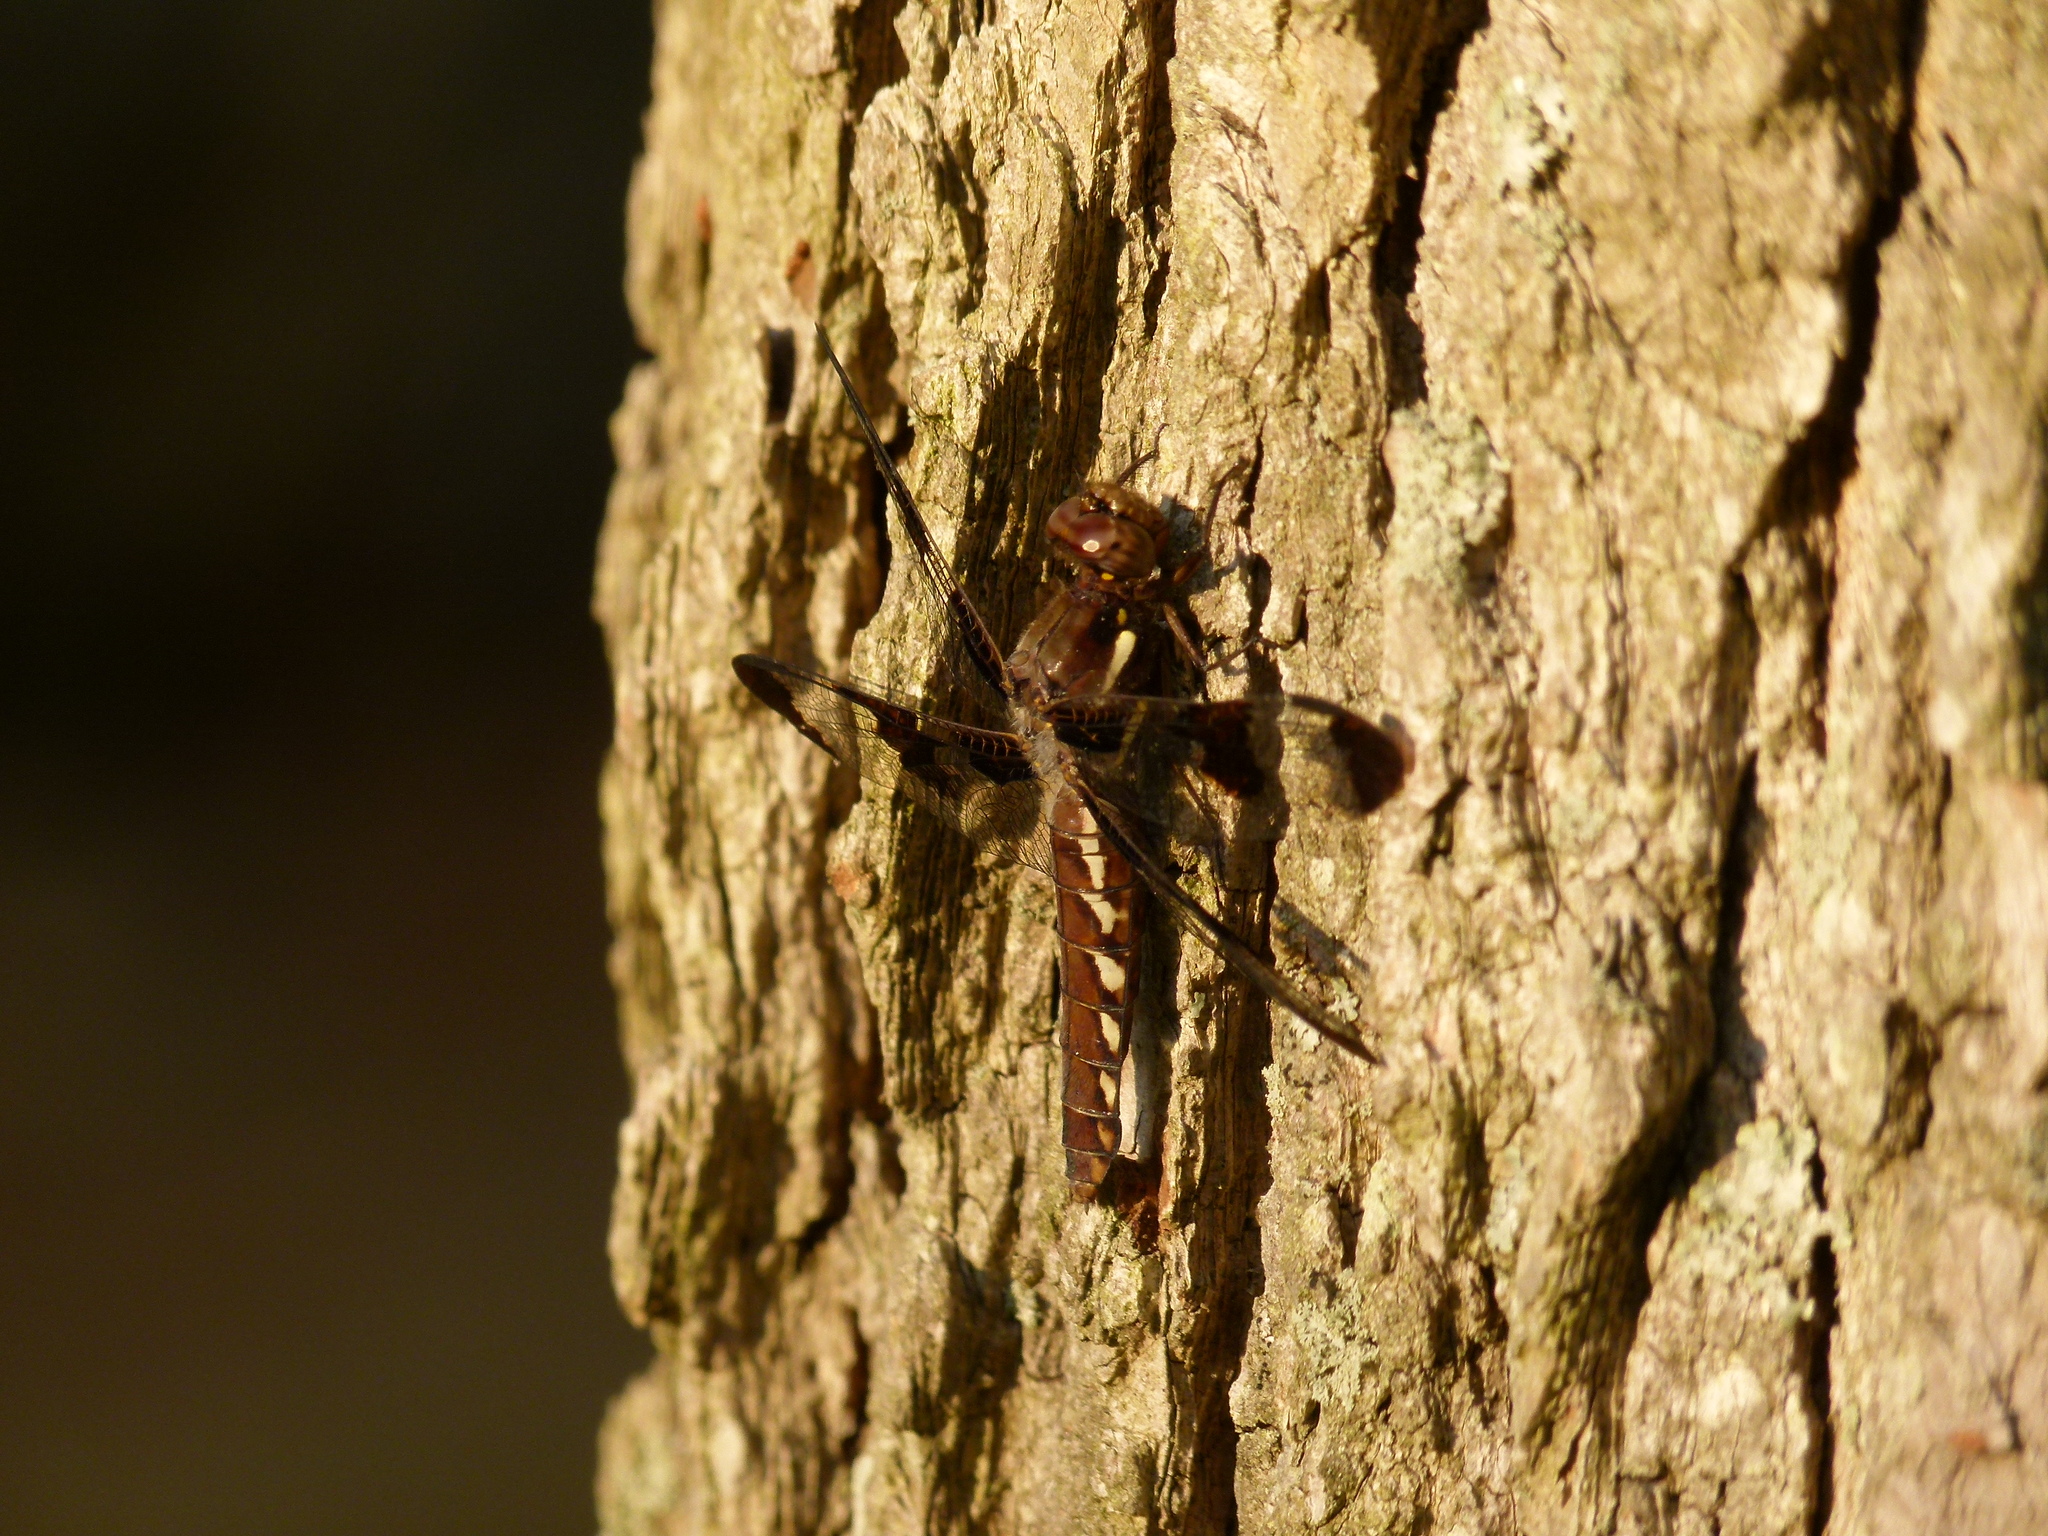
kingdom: Animalia
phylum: Arthropoda
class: Insecta
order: Odonata
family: Libellulidae
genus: Plathemis
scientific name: Plathemis lydia
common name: Common whitetail
